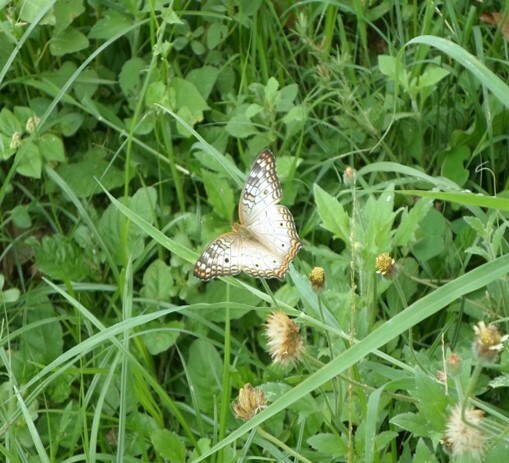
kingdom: Animalia
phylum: Arthropoda
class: Insecta
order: Lepidoptera
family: Nymphalidae
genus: Anartia
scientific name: Anartia jatrophae
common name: White peacock
